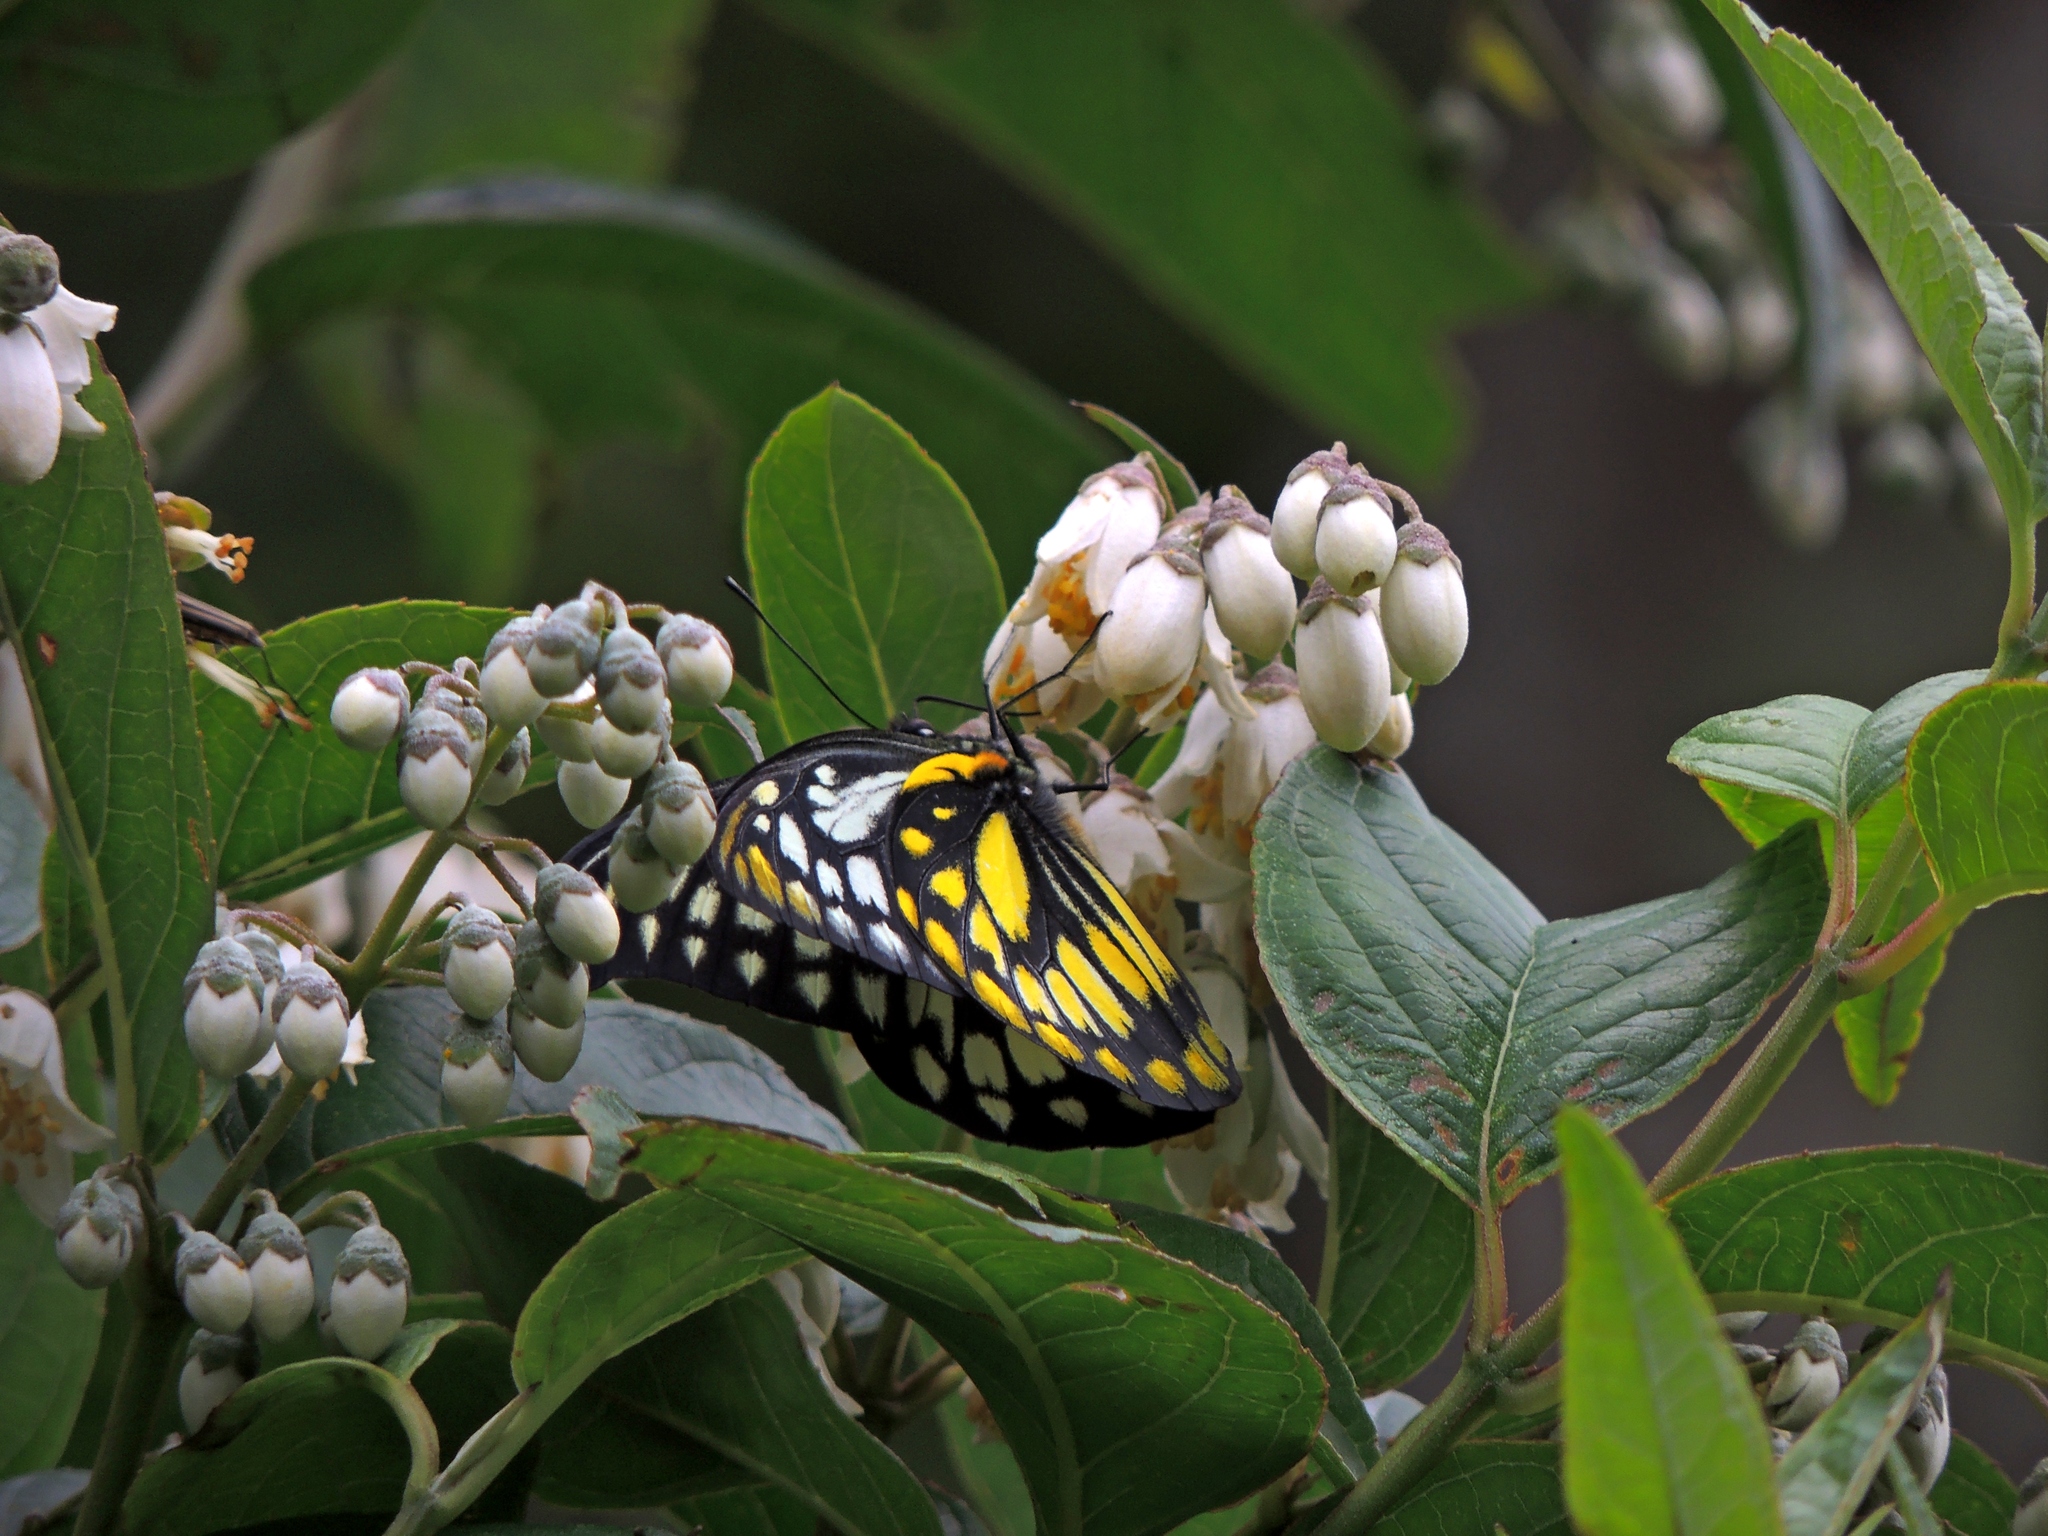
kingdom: Animalia
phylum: Arthropoda
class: Insecta
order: Lepidoptera
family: Pieridae
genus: Prioneris
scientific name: Prioneris thestylis
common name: Spotted sawtooth
